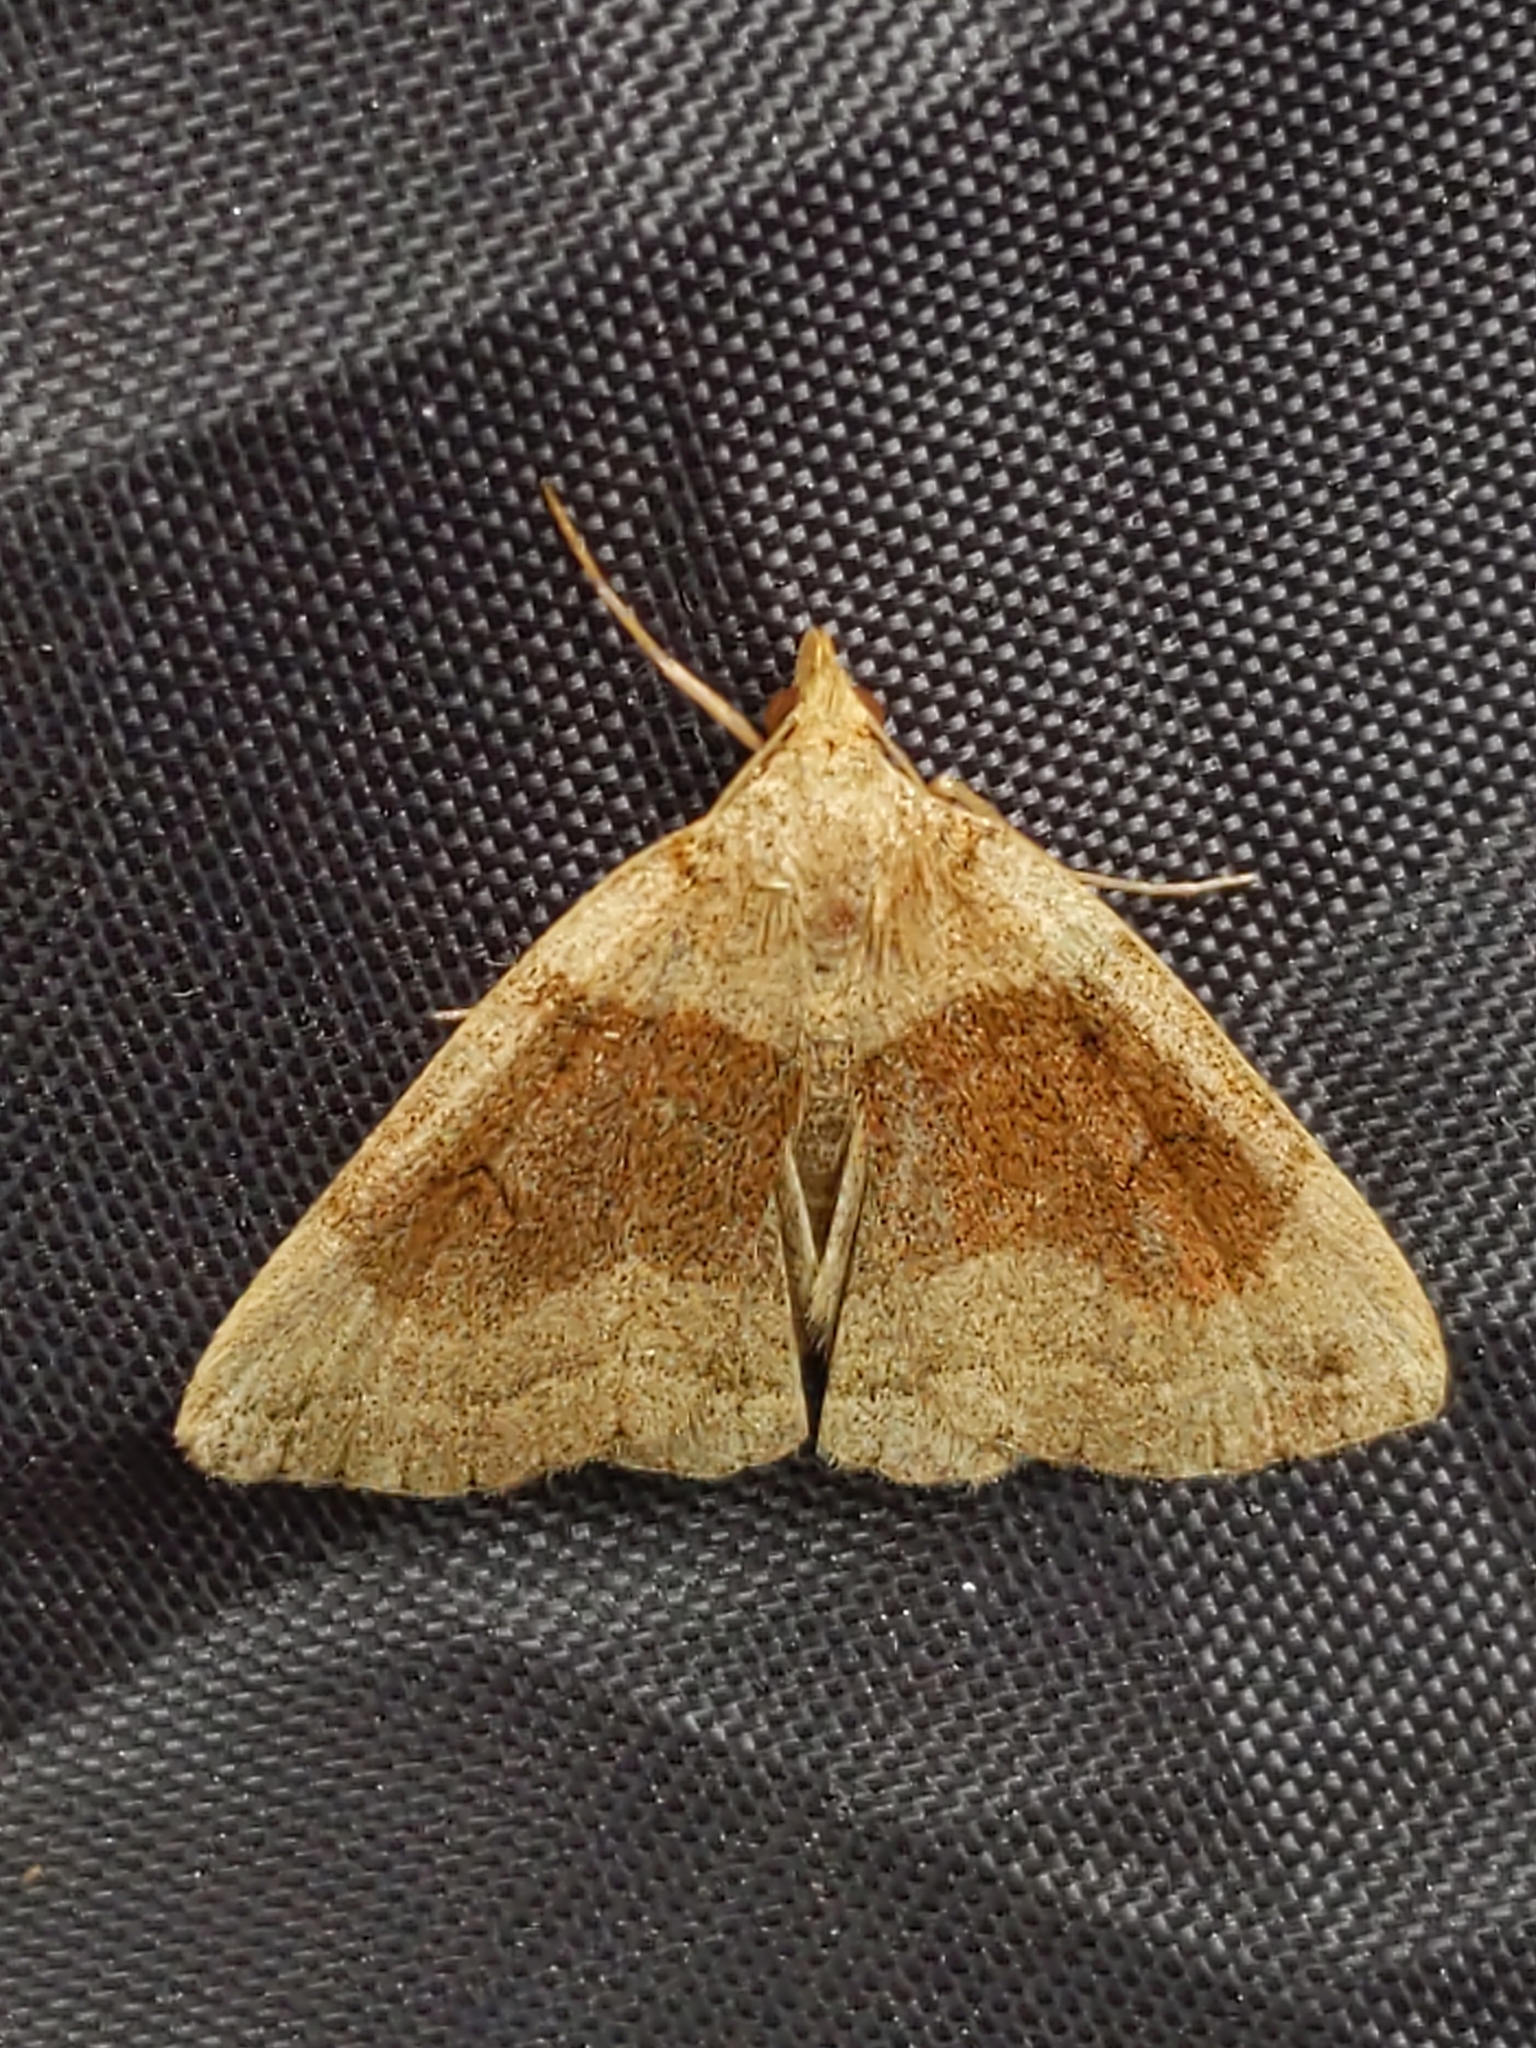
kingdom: Animalia
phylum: Arthropoda
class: Insecta
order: Lepidoptera
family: Erebidae
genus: Zanclognatha
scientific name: Zanclognatha laevigata
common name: Variable fan-foot
